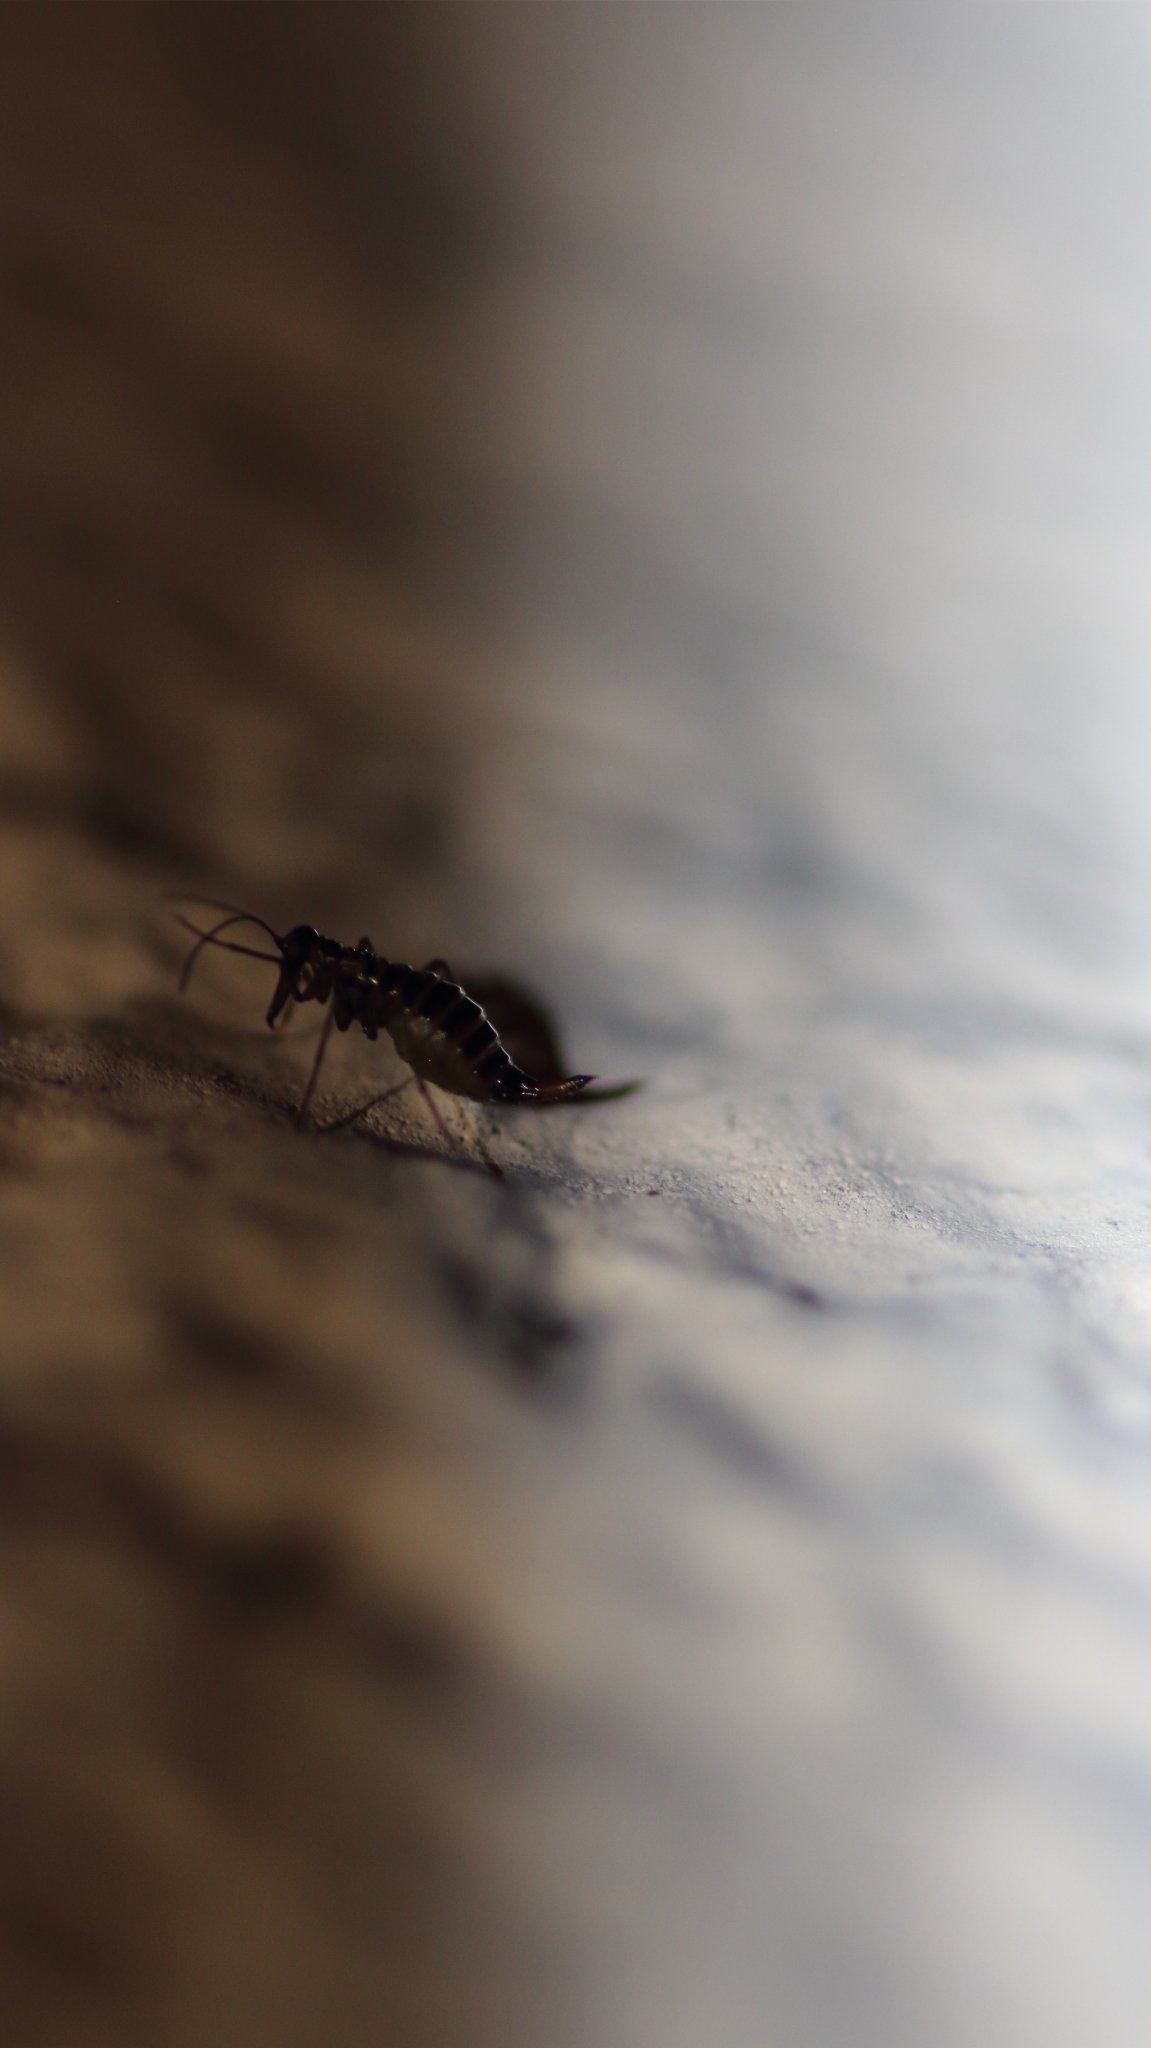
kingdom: Animalia
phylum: Arthropoda
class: Insecta
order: Mecoptera
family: Boreidae
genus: Boreus
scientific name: Boreus hyemalis
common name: Snow flea
